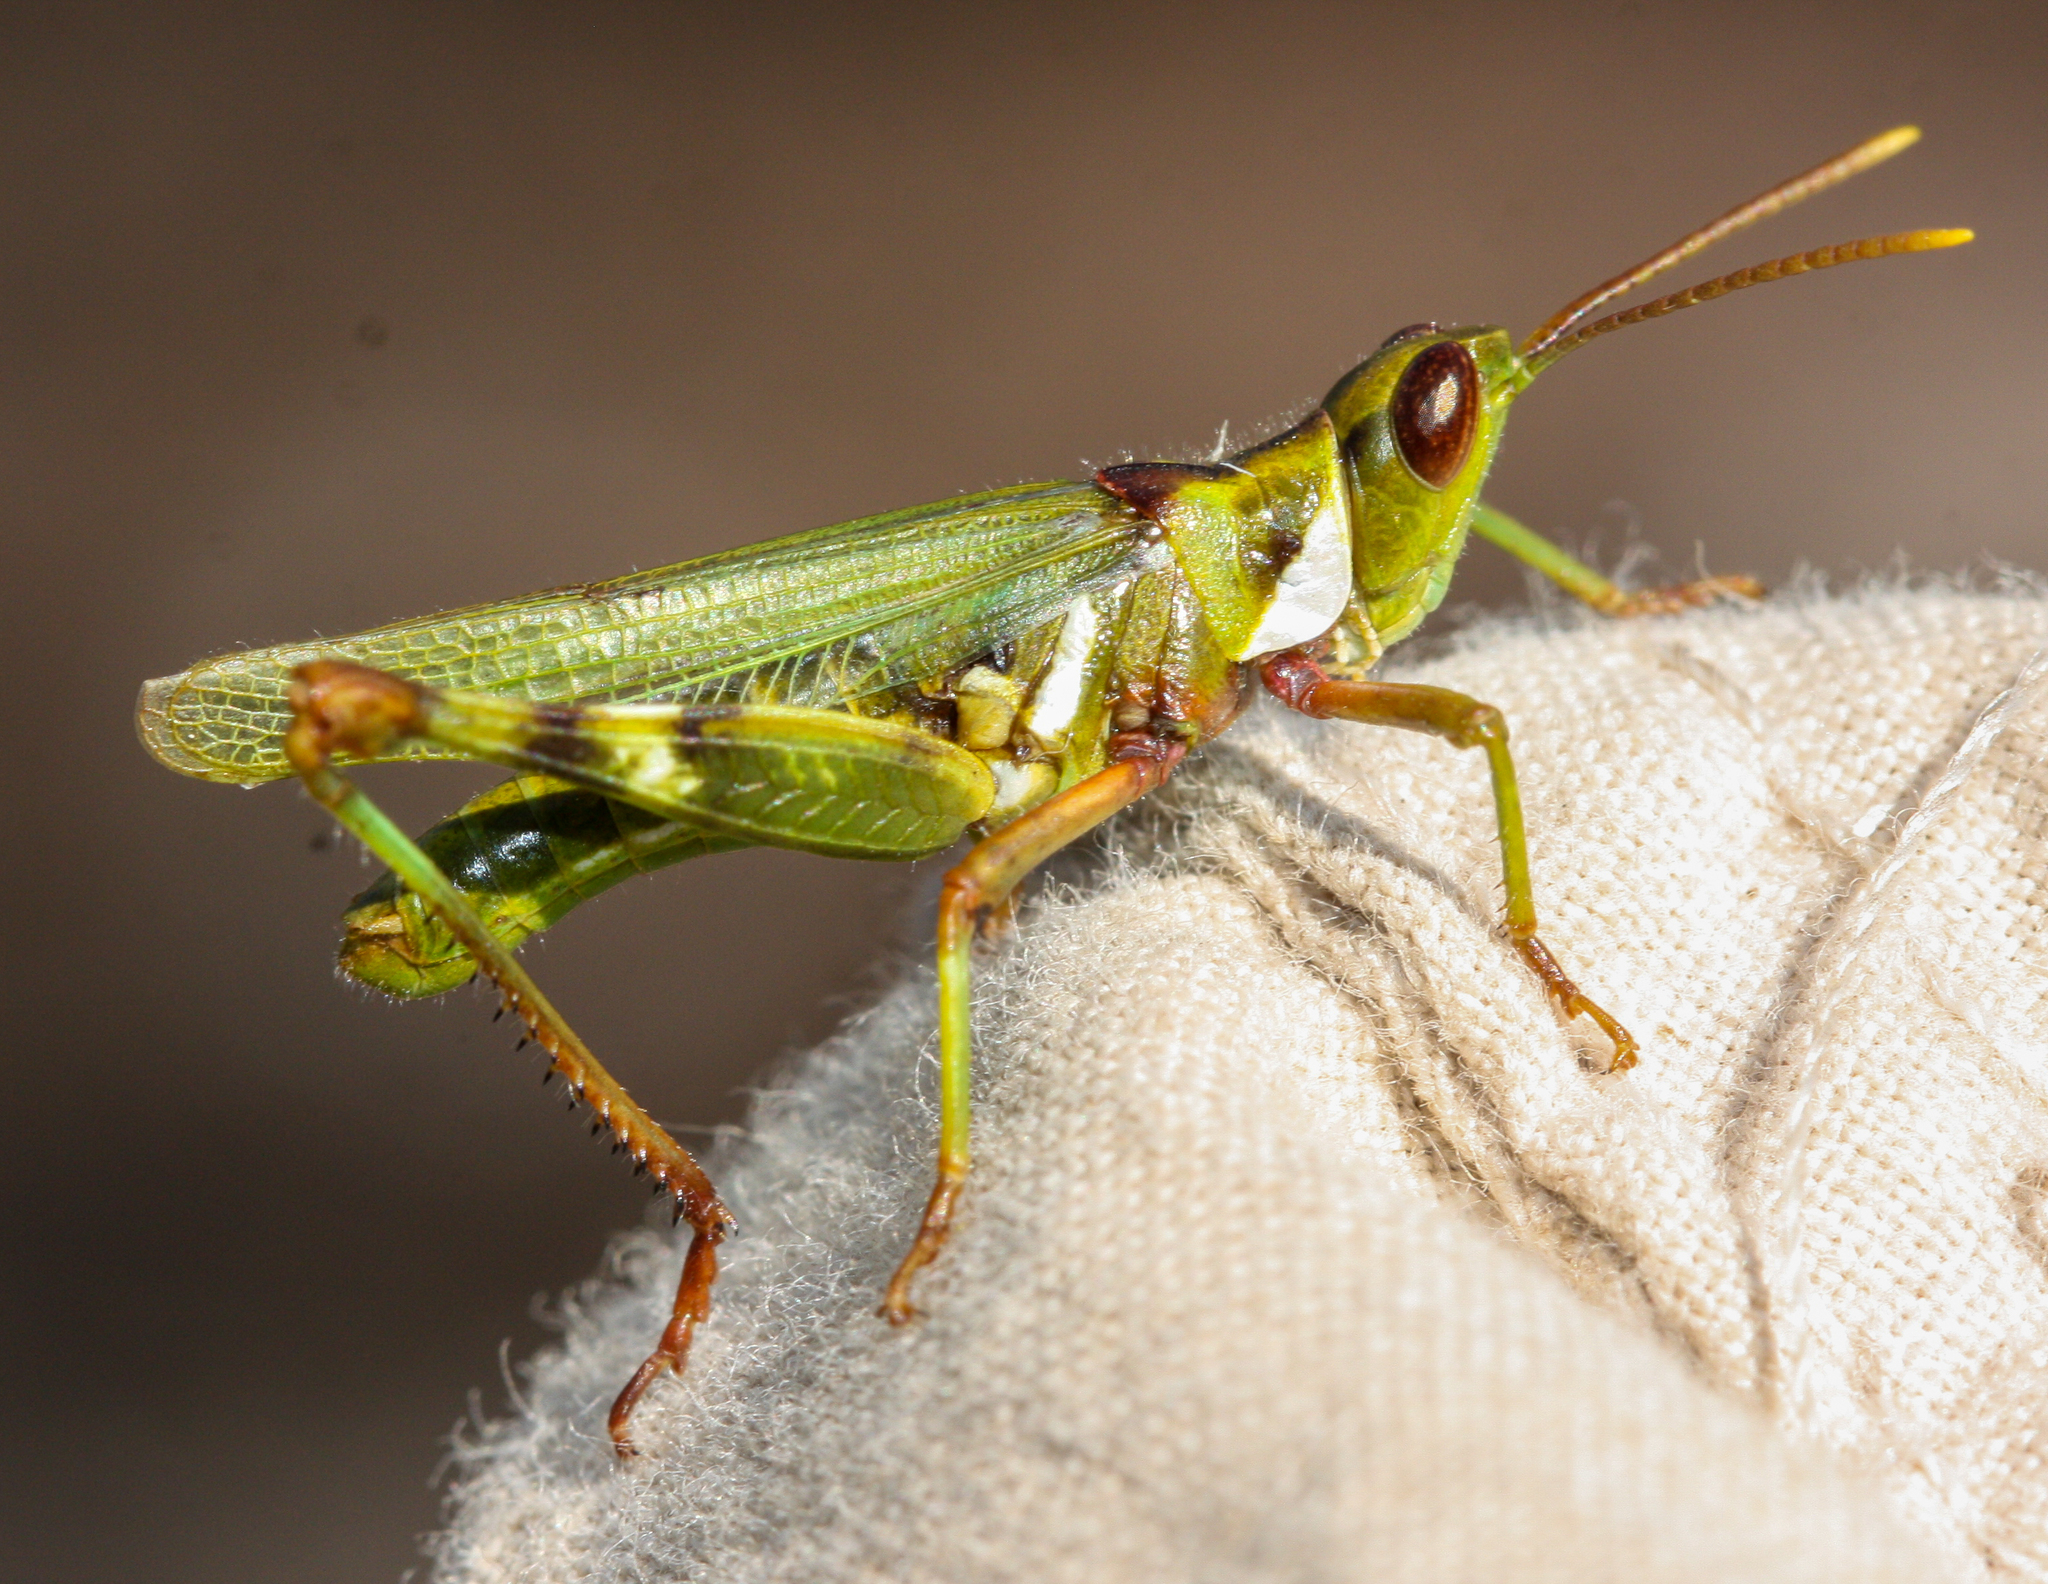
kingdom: Animalia
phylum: Arthropoda
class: Insecta
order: Orthoptera
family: Acrididae
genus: Bootettix
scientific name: Bootettix argentatus
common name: Creosote bush grasshopper
